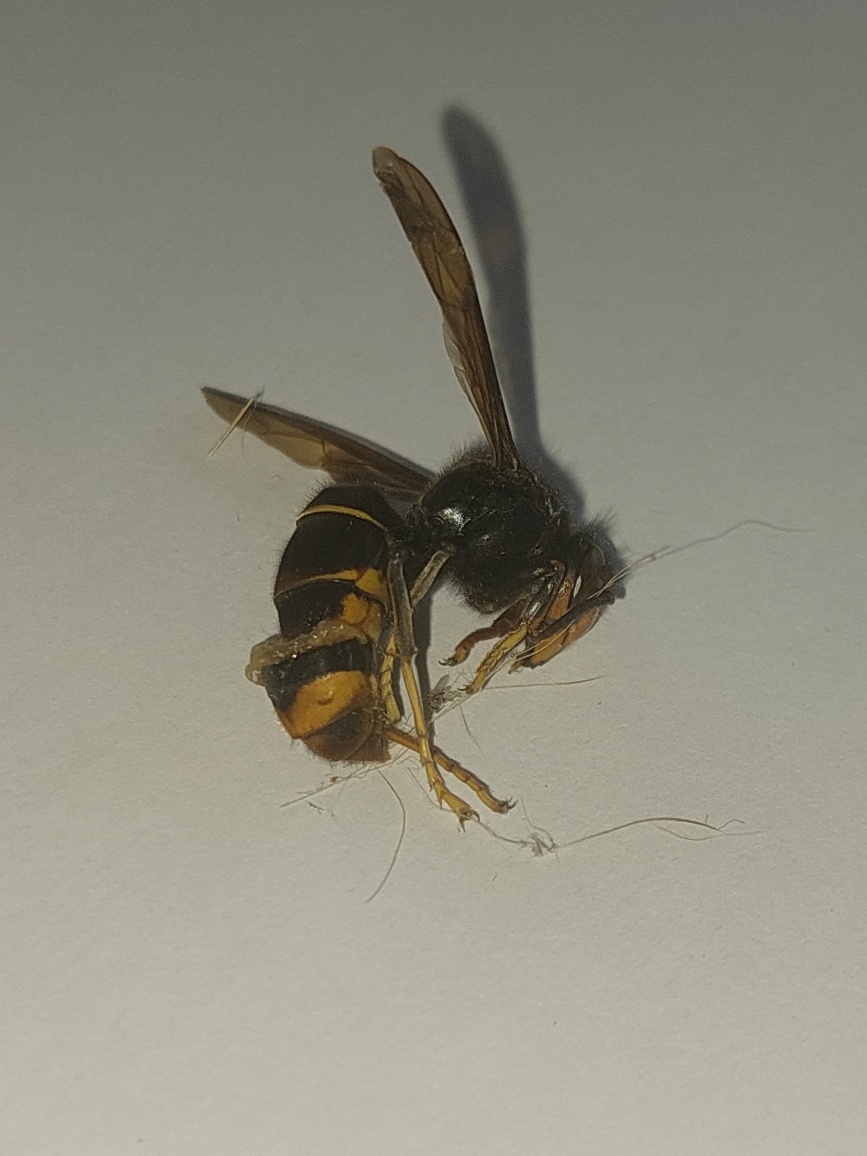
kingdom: Animalia
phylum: Arthropoda
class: Insecta
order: Hymenoptera
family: Vespidae
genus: Vespa
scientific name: Vespa velutina
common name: Asian hornet
